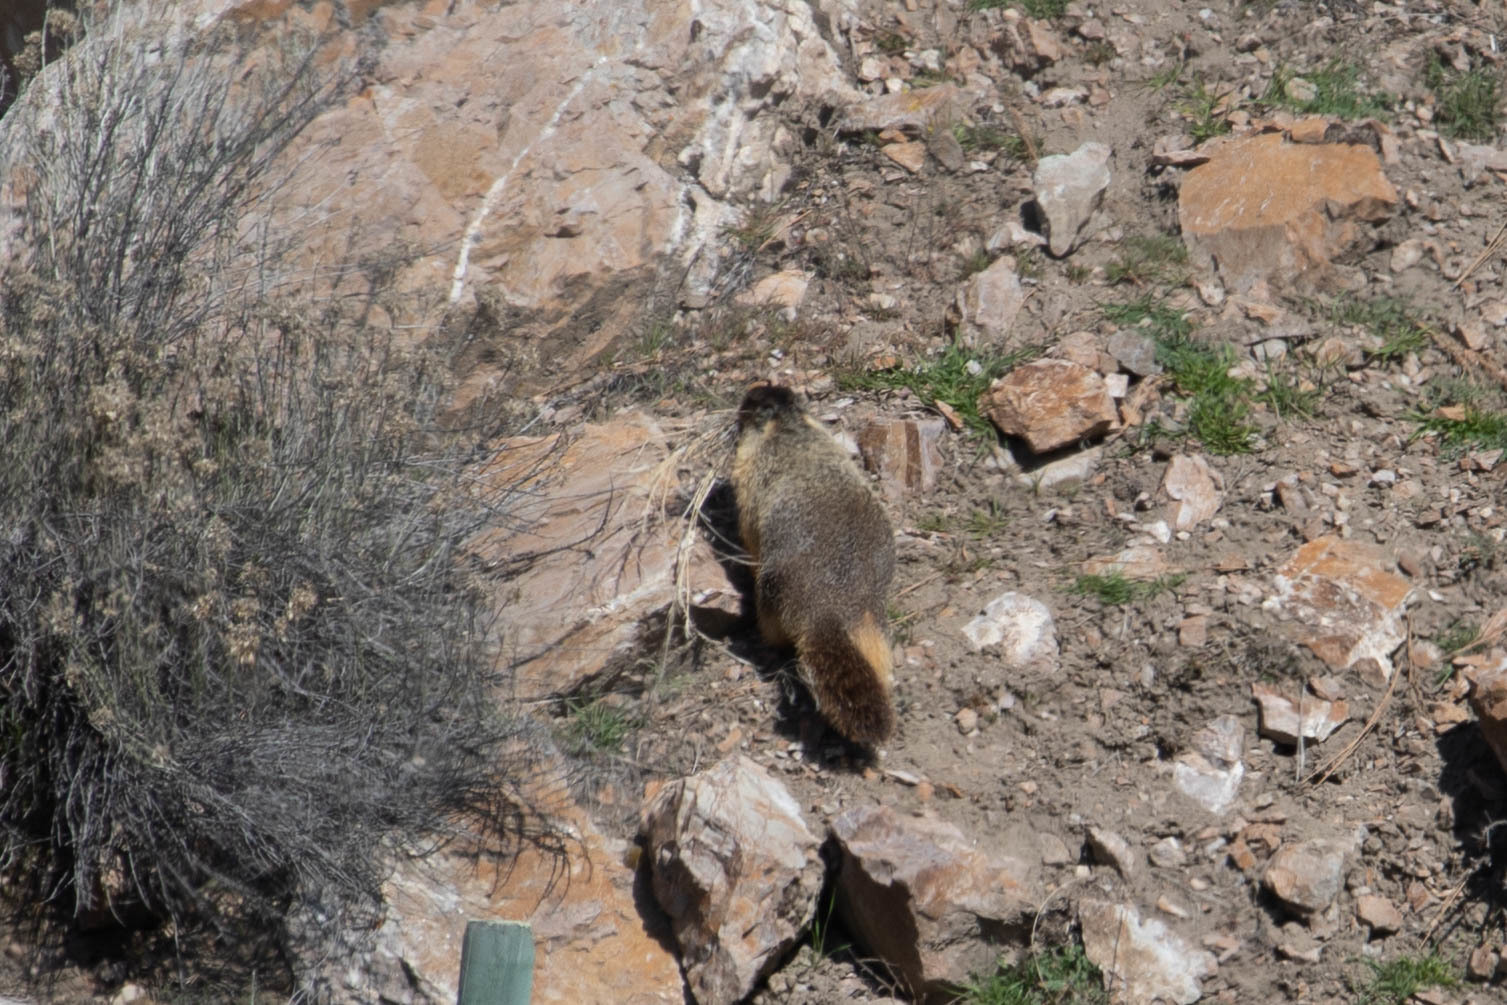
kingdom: Animalia
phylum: Chordata
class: Mammalia
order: Rodentia
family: Sciuridae
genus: Marmota
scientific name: Marmota flaviventris
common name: Yellow-bellied marmot
